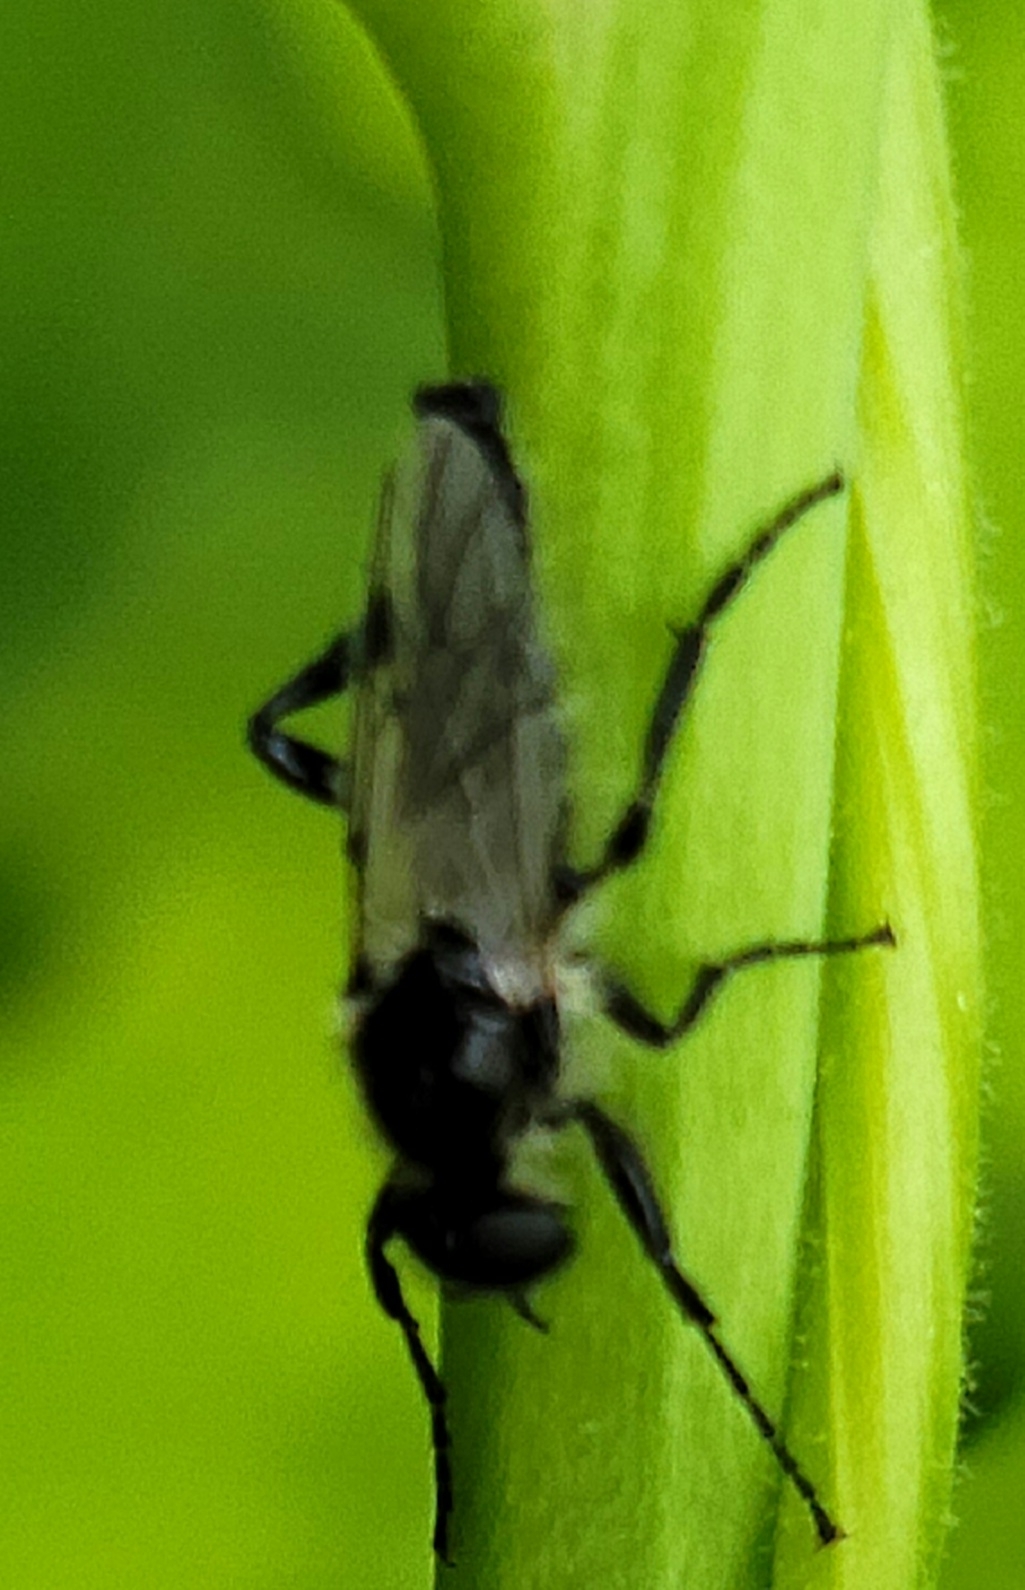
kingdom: Animalia
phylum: Arthropoda
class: Insecta
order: Diptera
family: Bibionidae
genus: Bibio
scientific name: Bibio albipennis
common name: White-winged march fly
